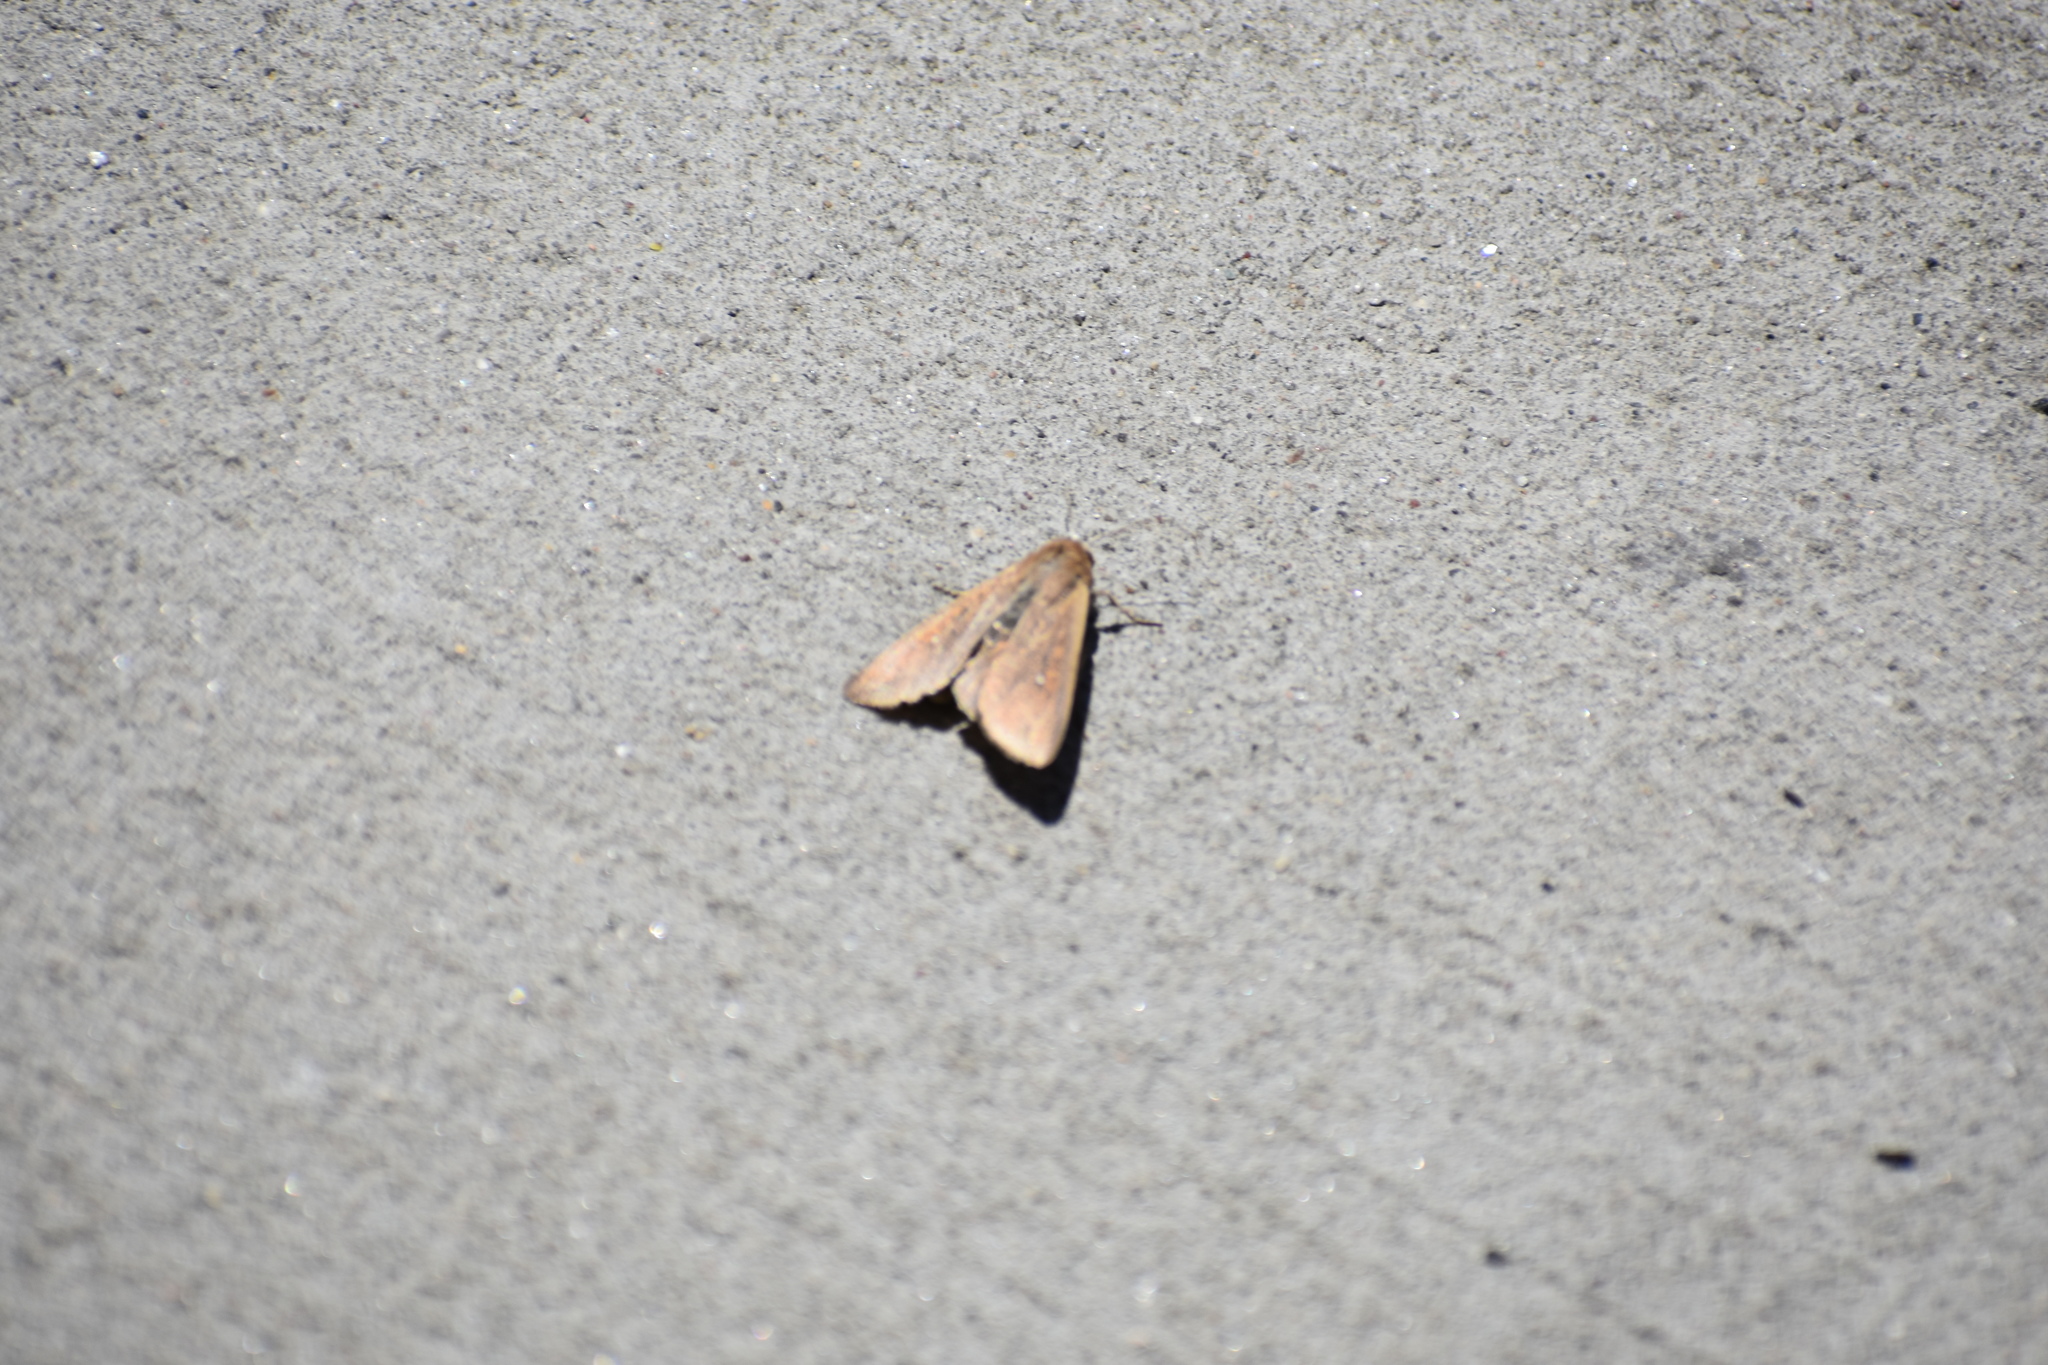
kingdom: Animalia
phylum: Arthropoda
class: Insecta
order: Lepidoptera
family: Noctuidae
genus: Mythimna
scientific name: Mythimna unipuncta
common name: White-speck
